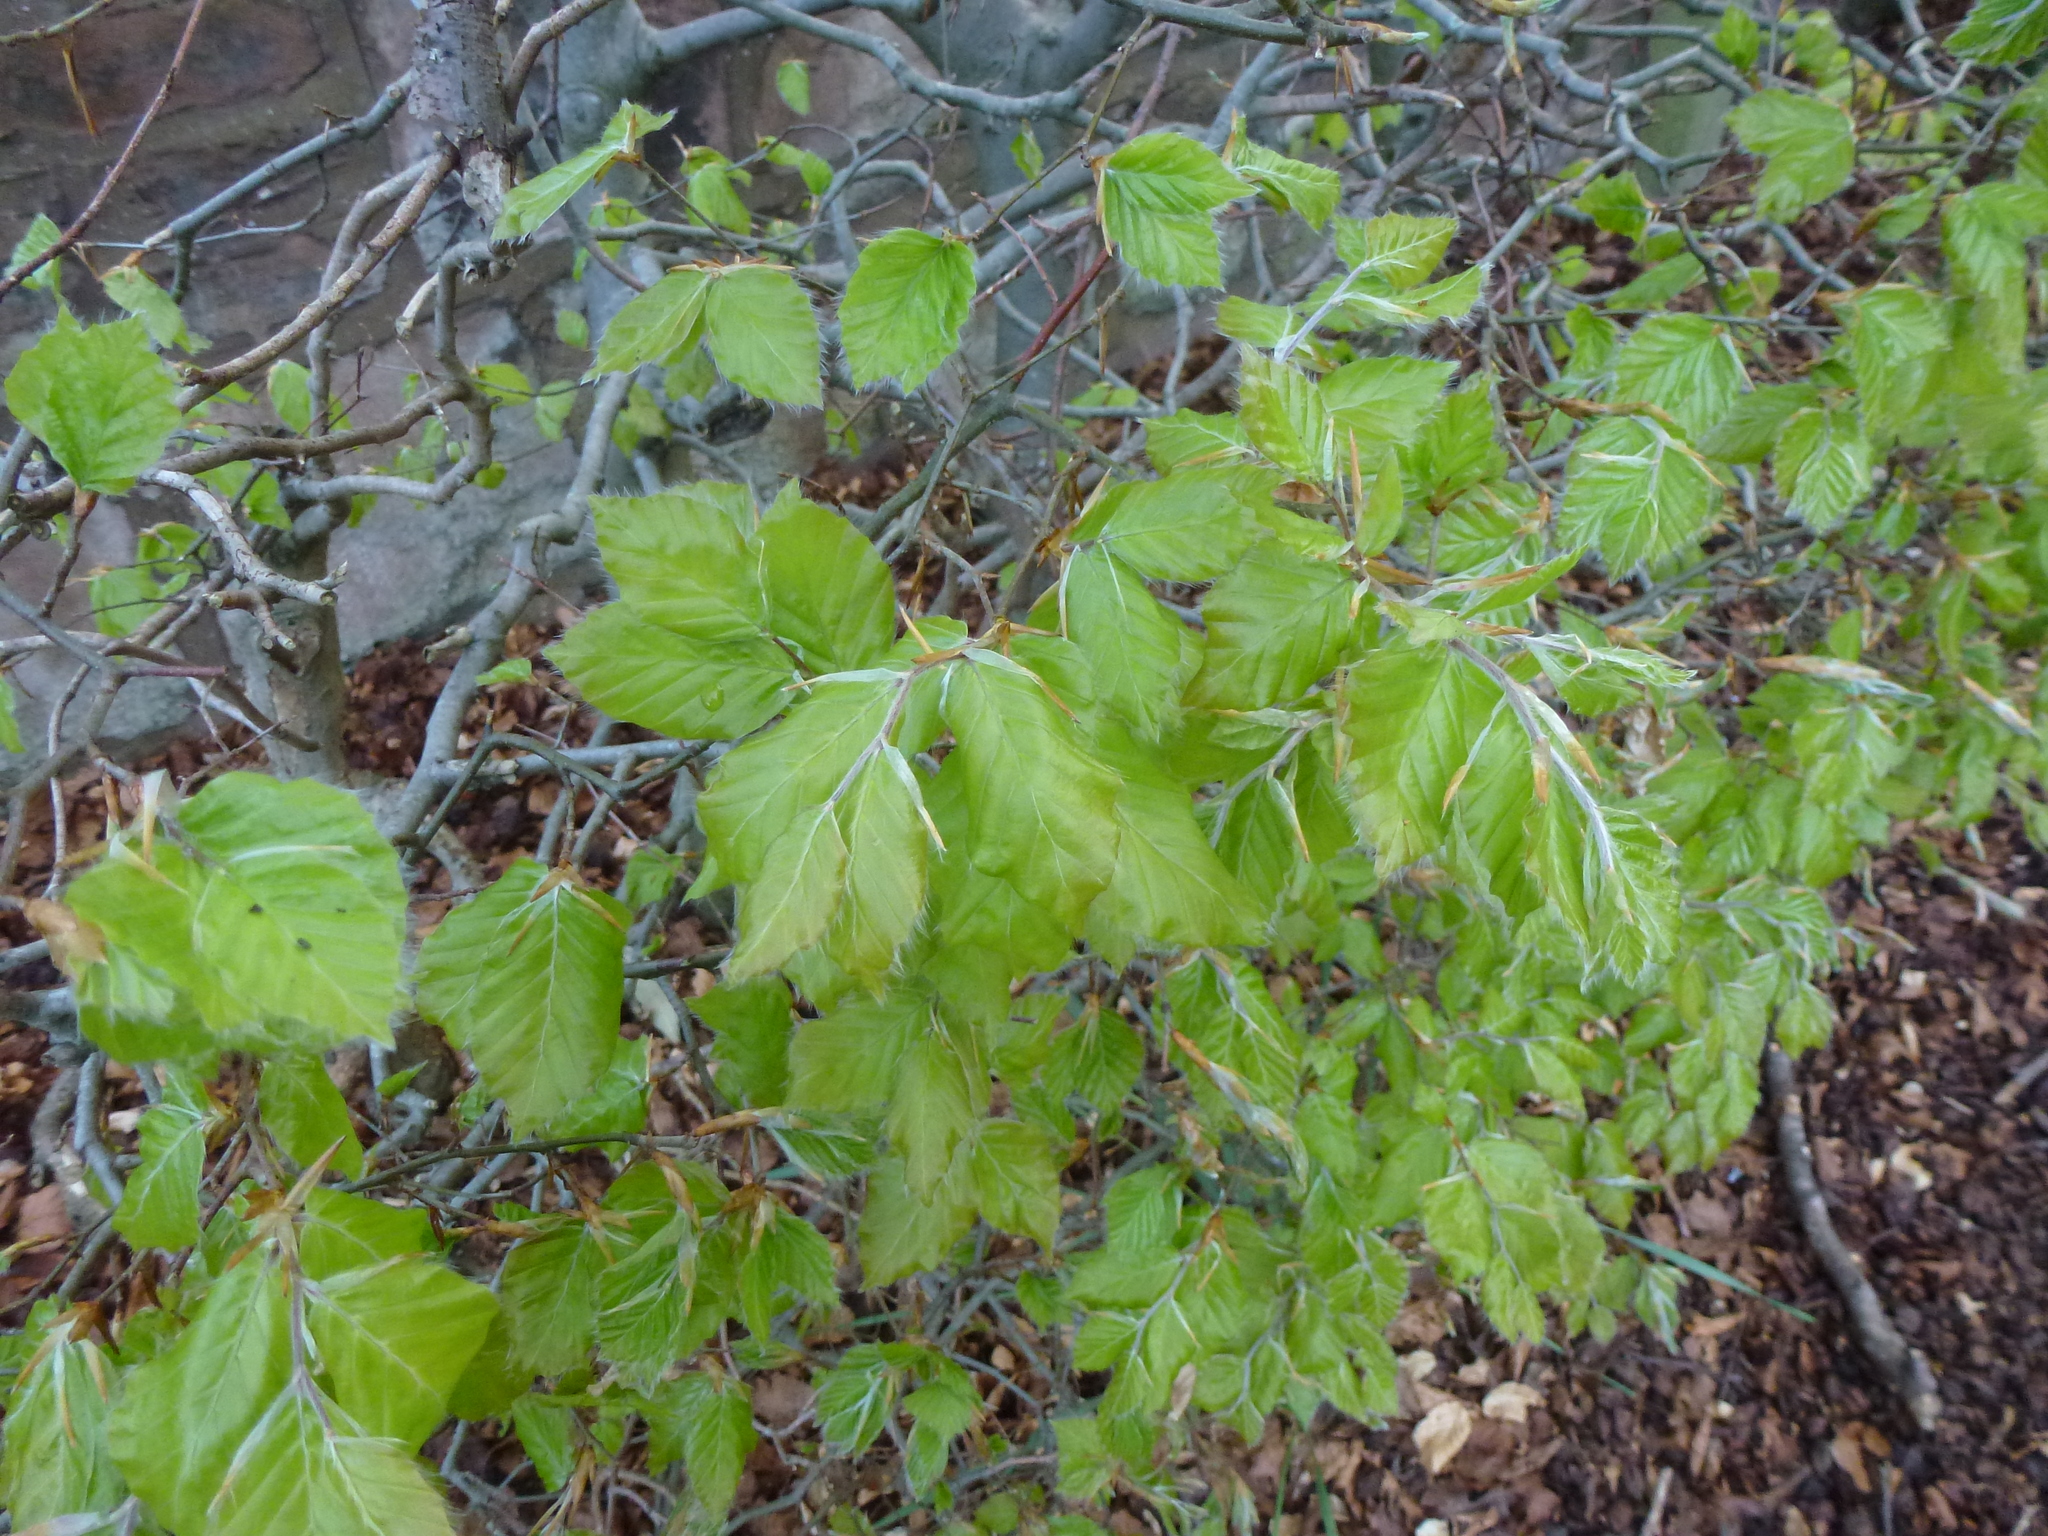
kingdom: Plantae
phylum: Tracheophyta
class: Magnoliopsida
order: Fagales
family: Fagaceae
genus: Fagus
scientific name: Fagus sylvatica
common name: Beech
